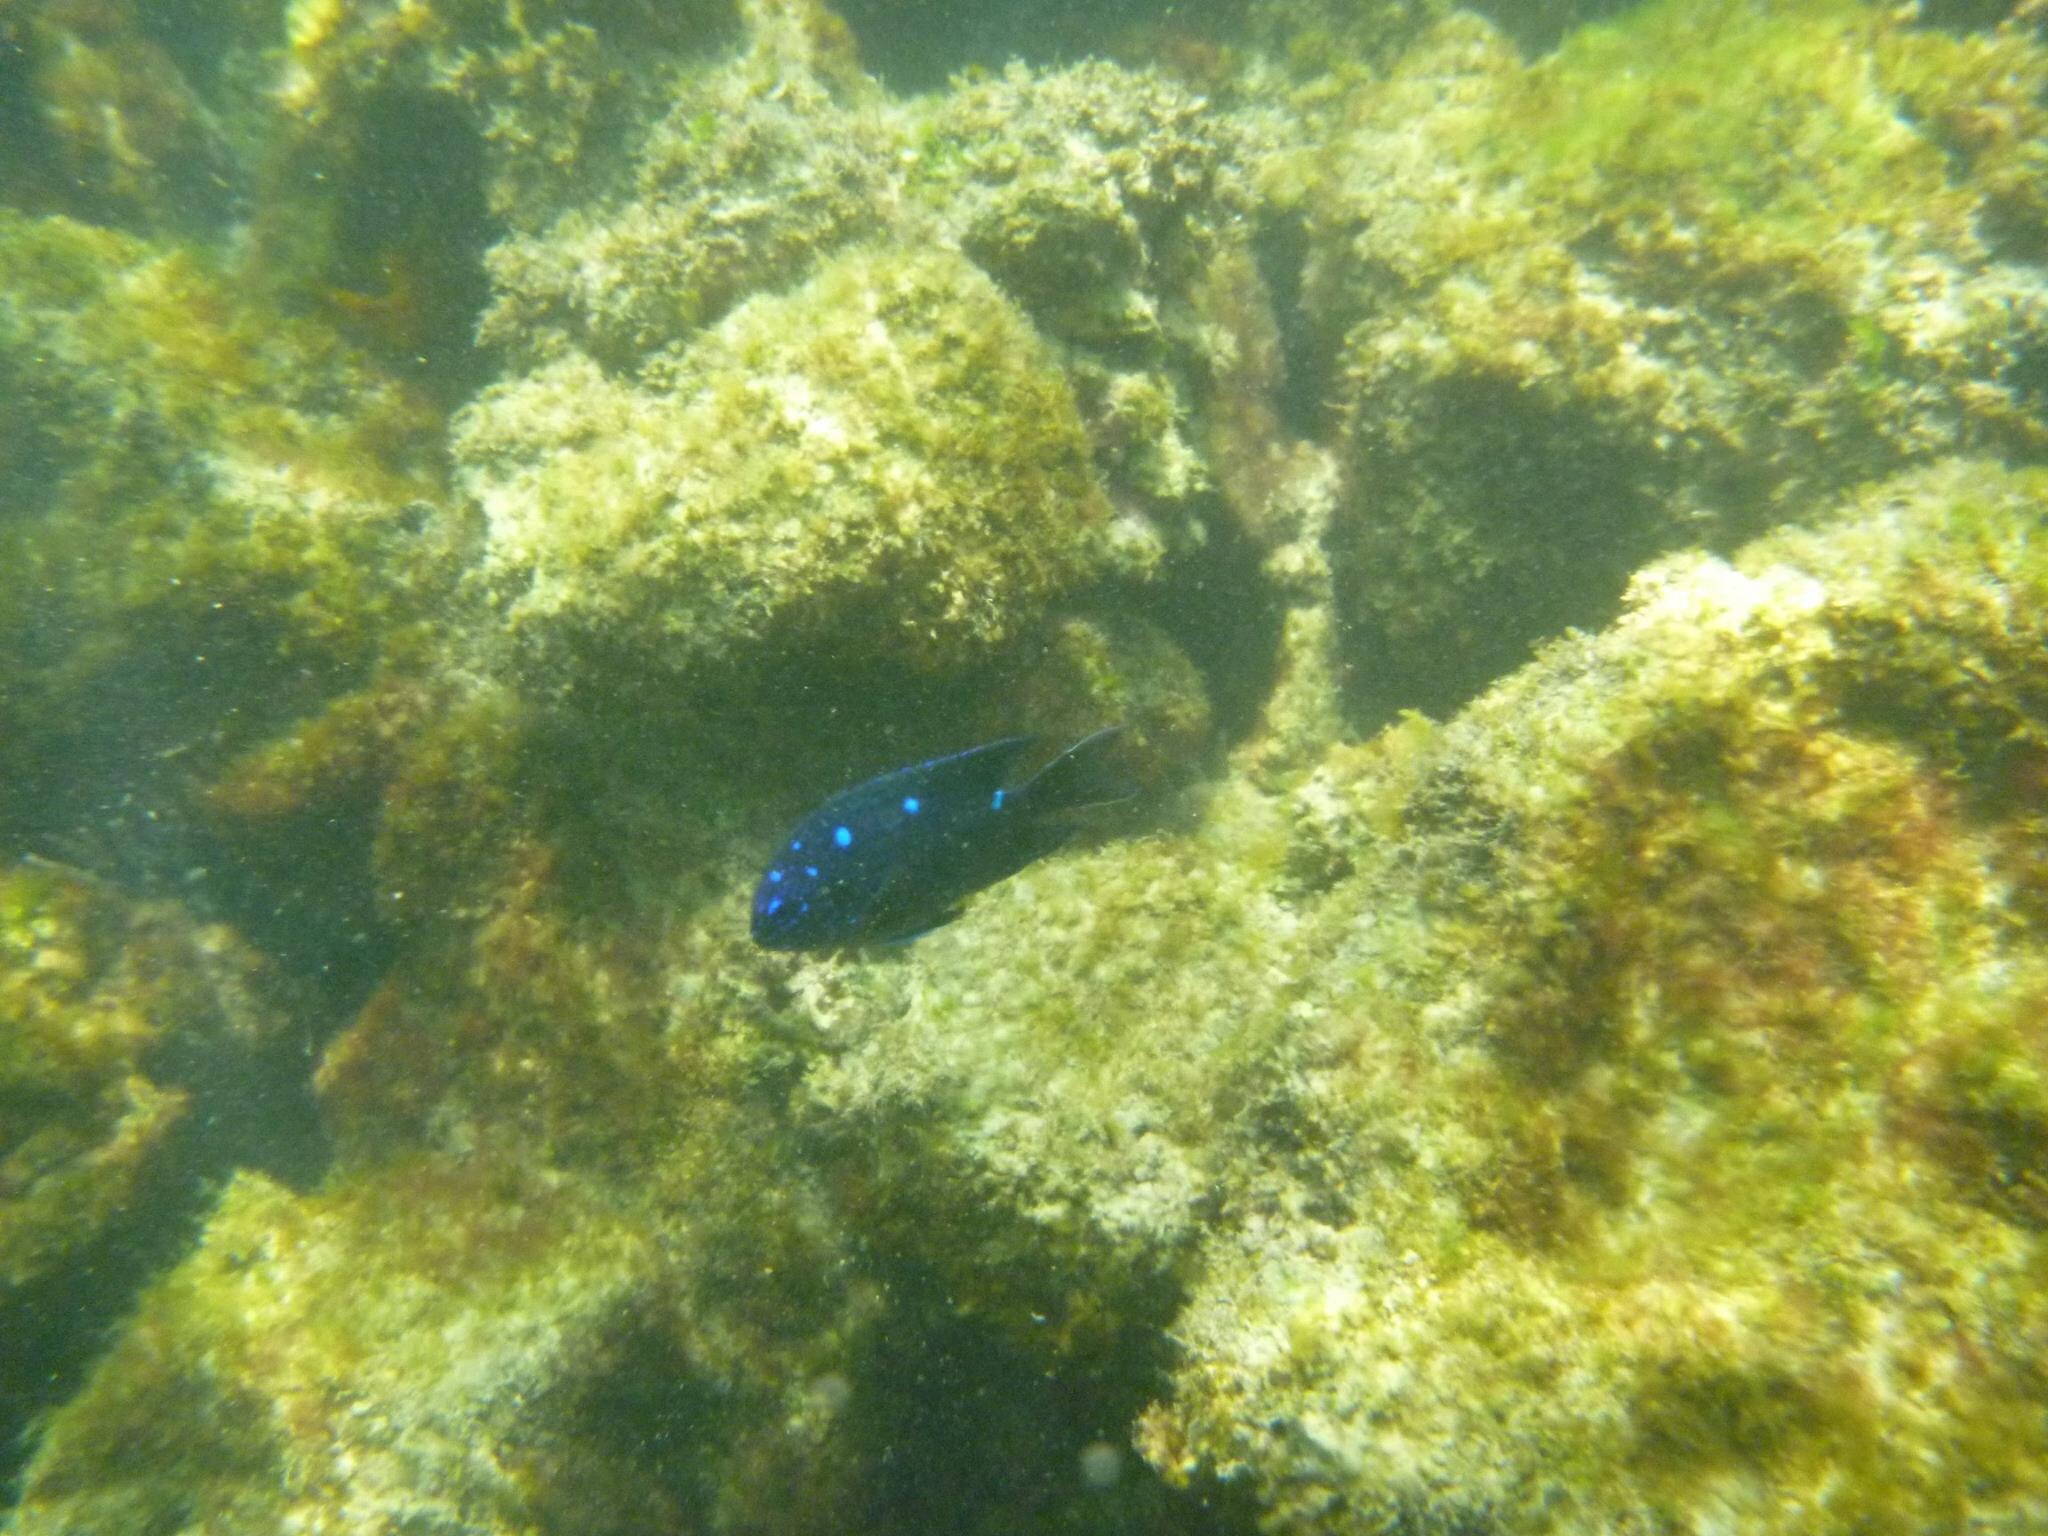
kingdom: Animalia
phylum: Chordata
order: Perciformes
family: Pomacentridae
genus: Microspathodon
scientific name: Microspathodon dorsalis
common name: Giant damselfish
